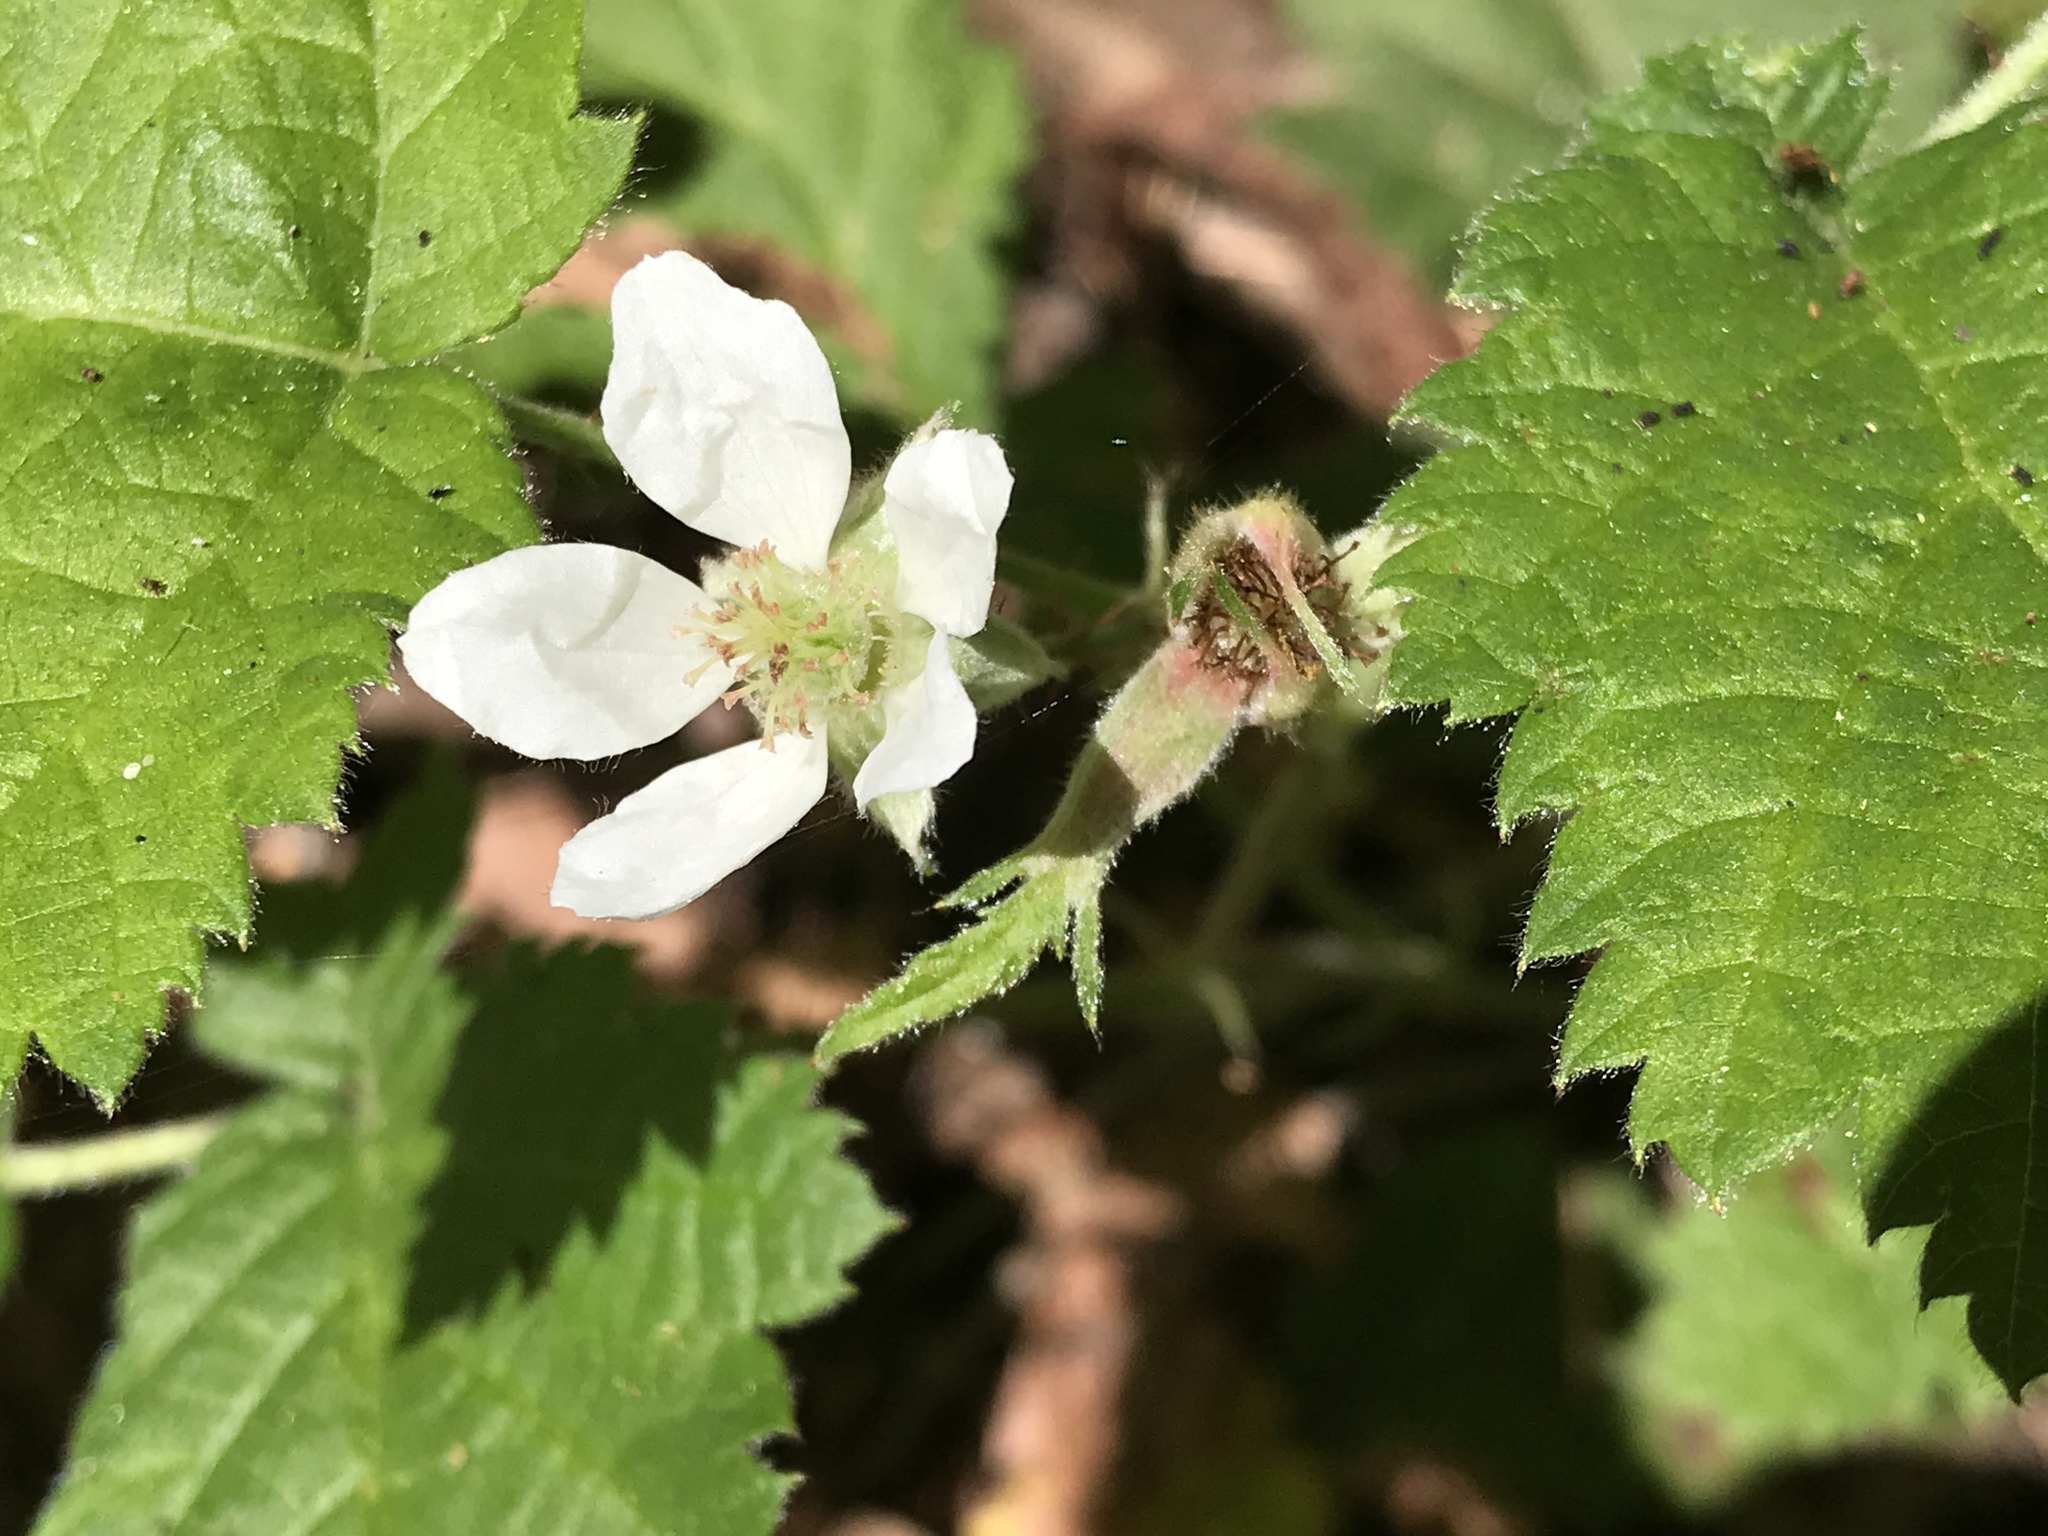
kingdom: Plantae
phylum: Tracheophyta
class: Magnoliopsida
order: Rosales
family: Rosaceae
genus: Rubus
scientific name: Rubus ursinus
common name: Pacific blackberry
